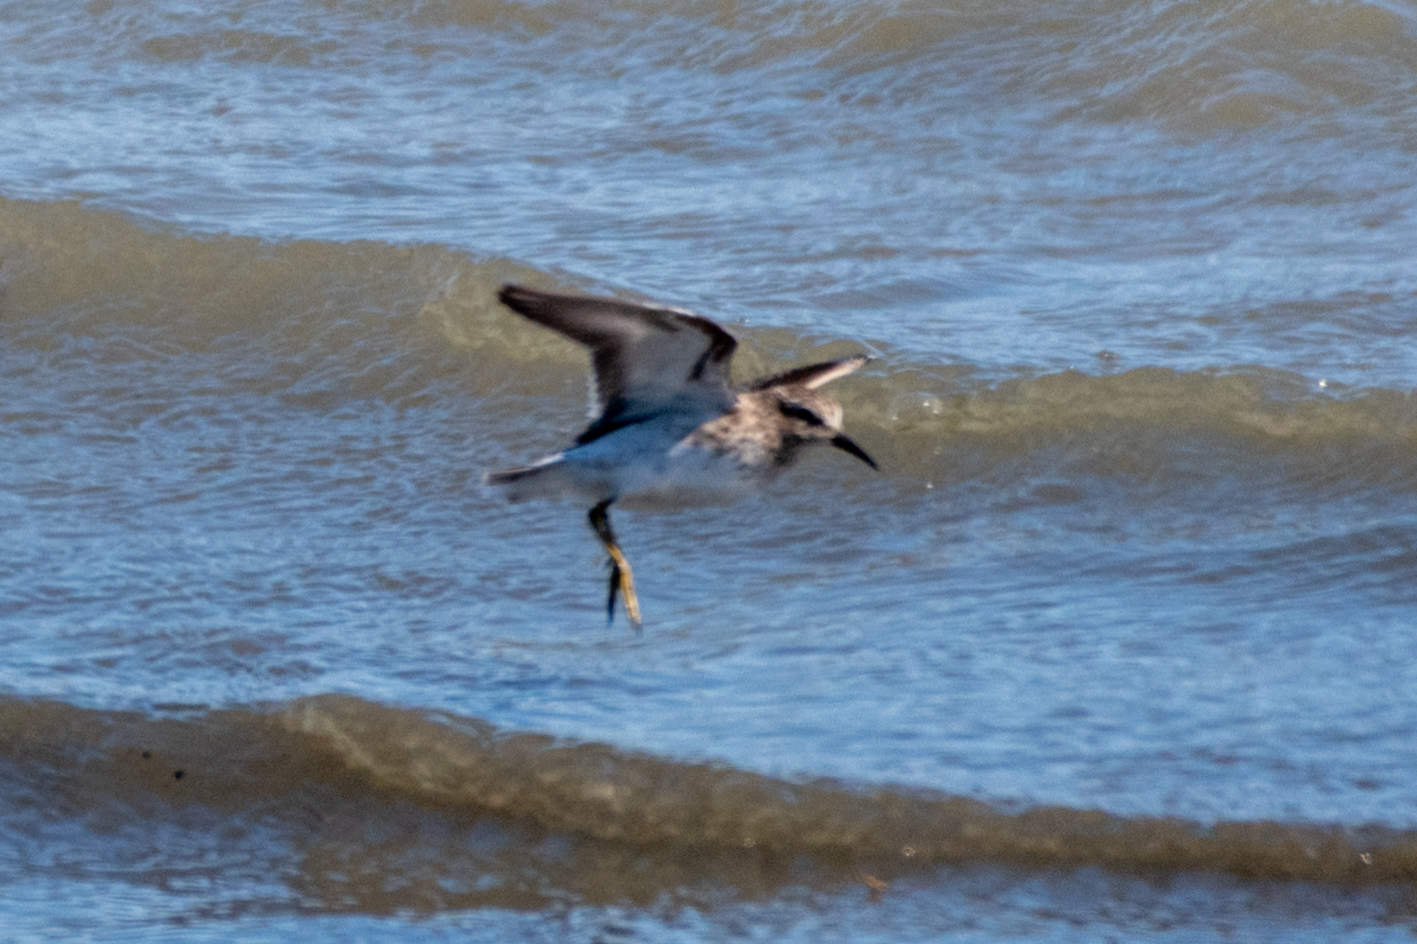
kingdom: Animalia
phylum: Chordata
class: Aves
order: Charadriiformes
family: Scolopacidae
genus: Calidris
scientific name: Calidris minutilla
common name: Least sandpiper
